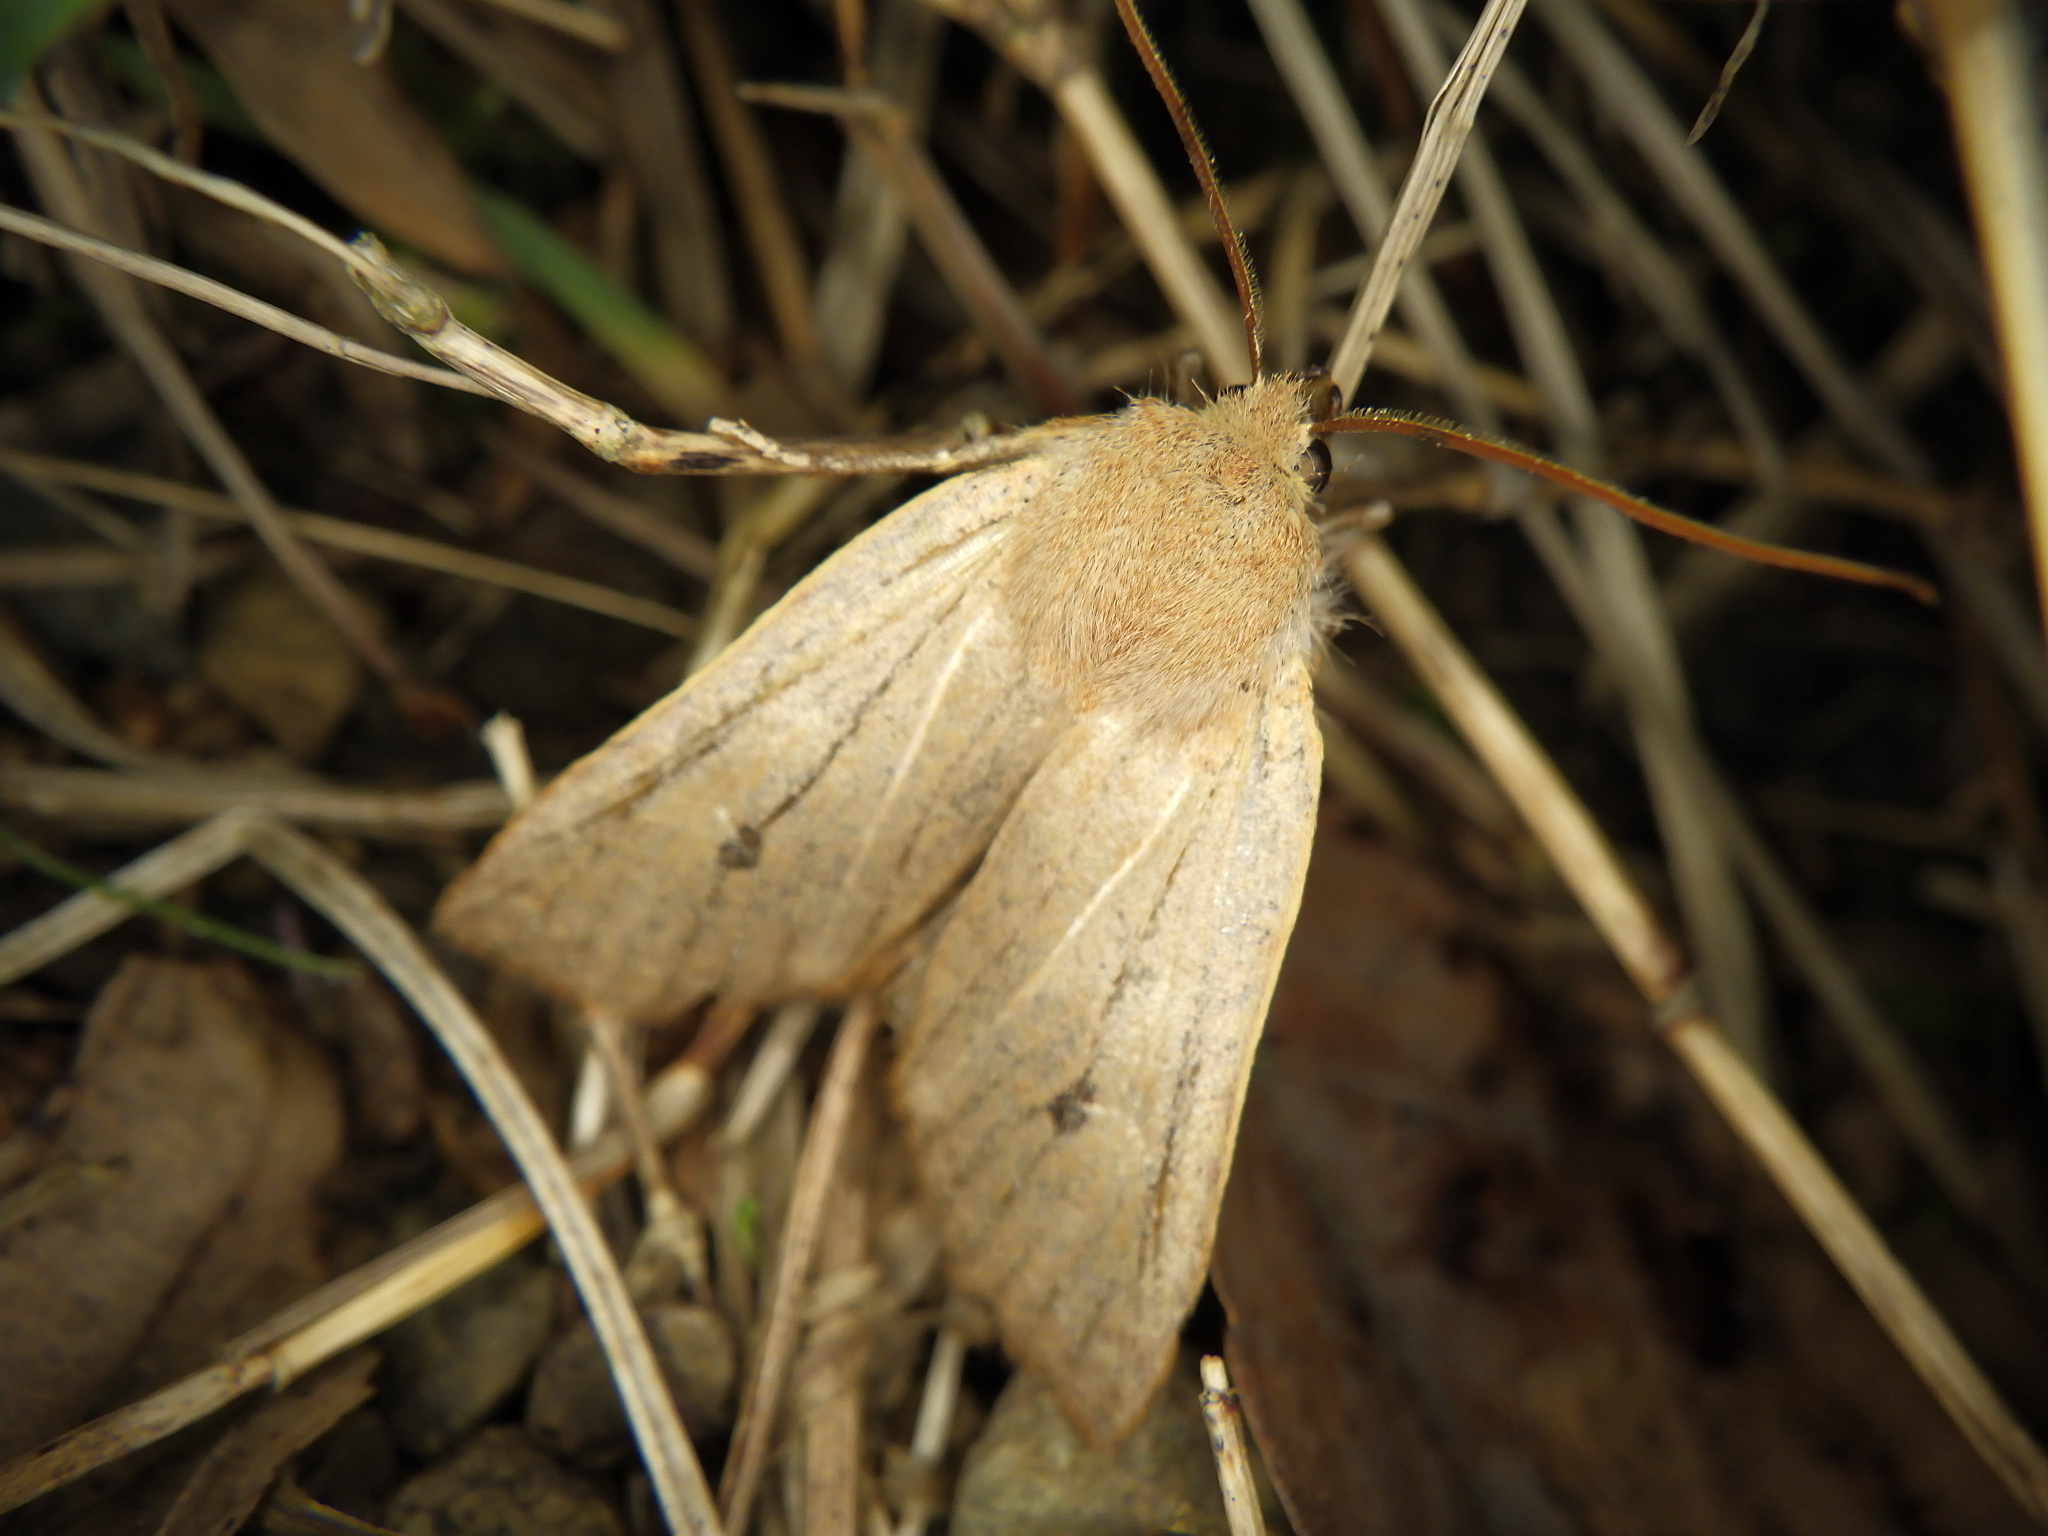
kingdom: Animalia
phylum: Arthropoda
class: Insecta
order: Lepidoptera
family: Noctuidae
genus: Conistra
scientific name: Conistra albipuncta
